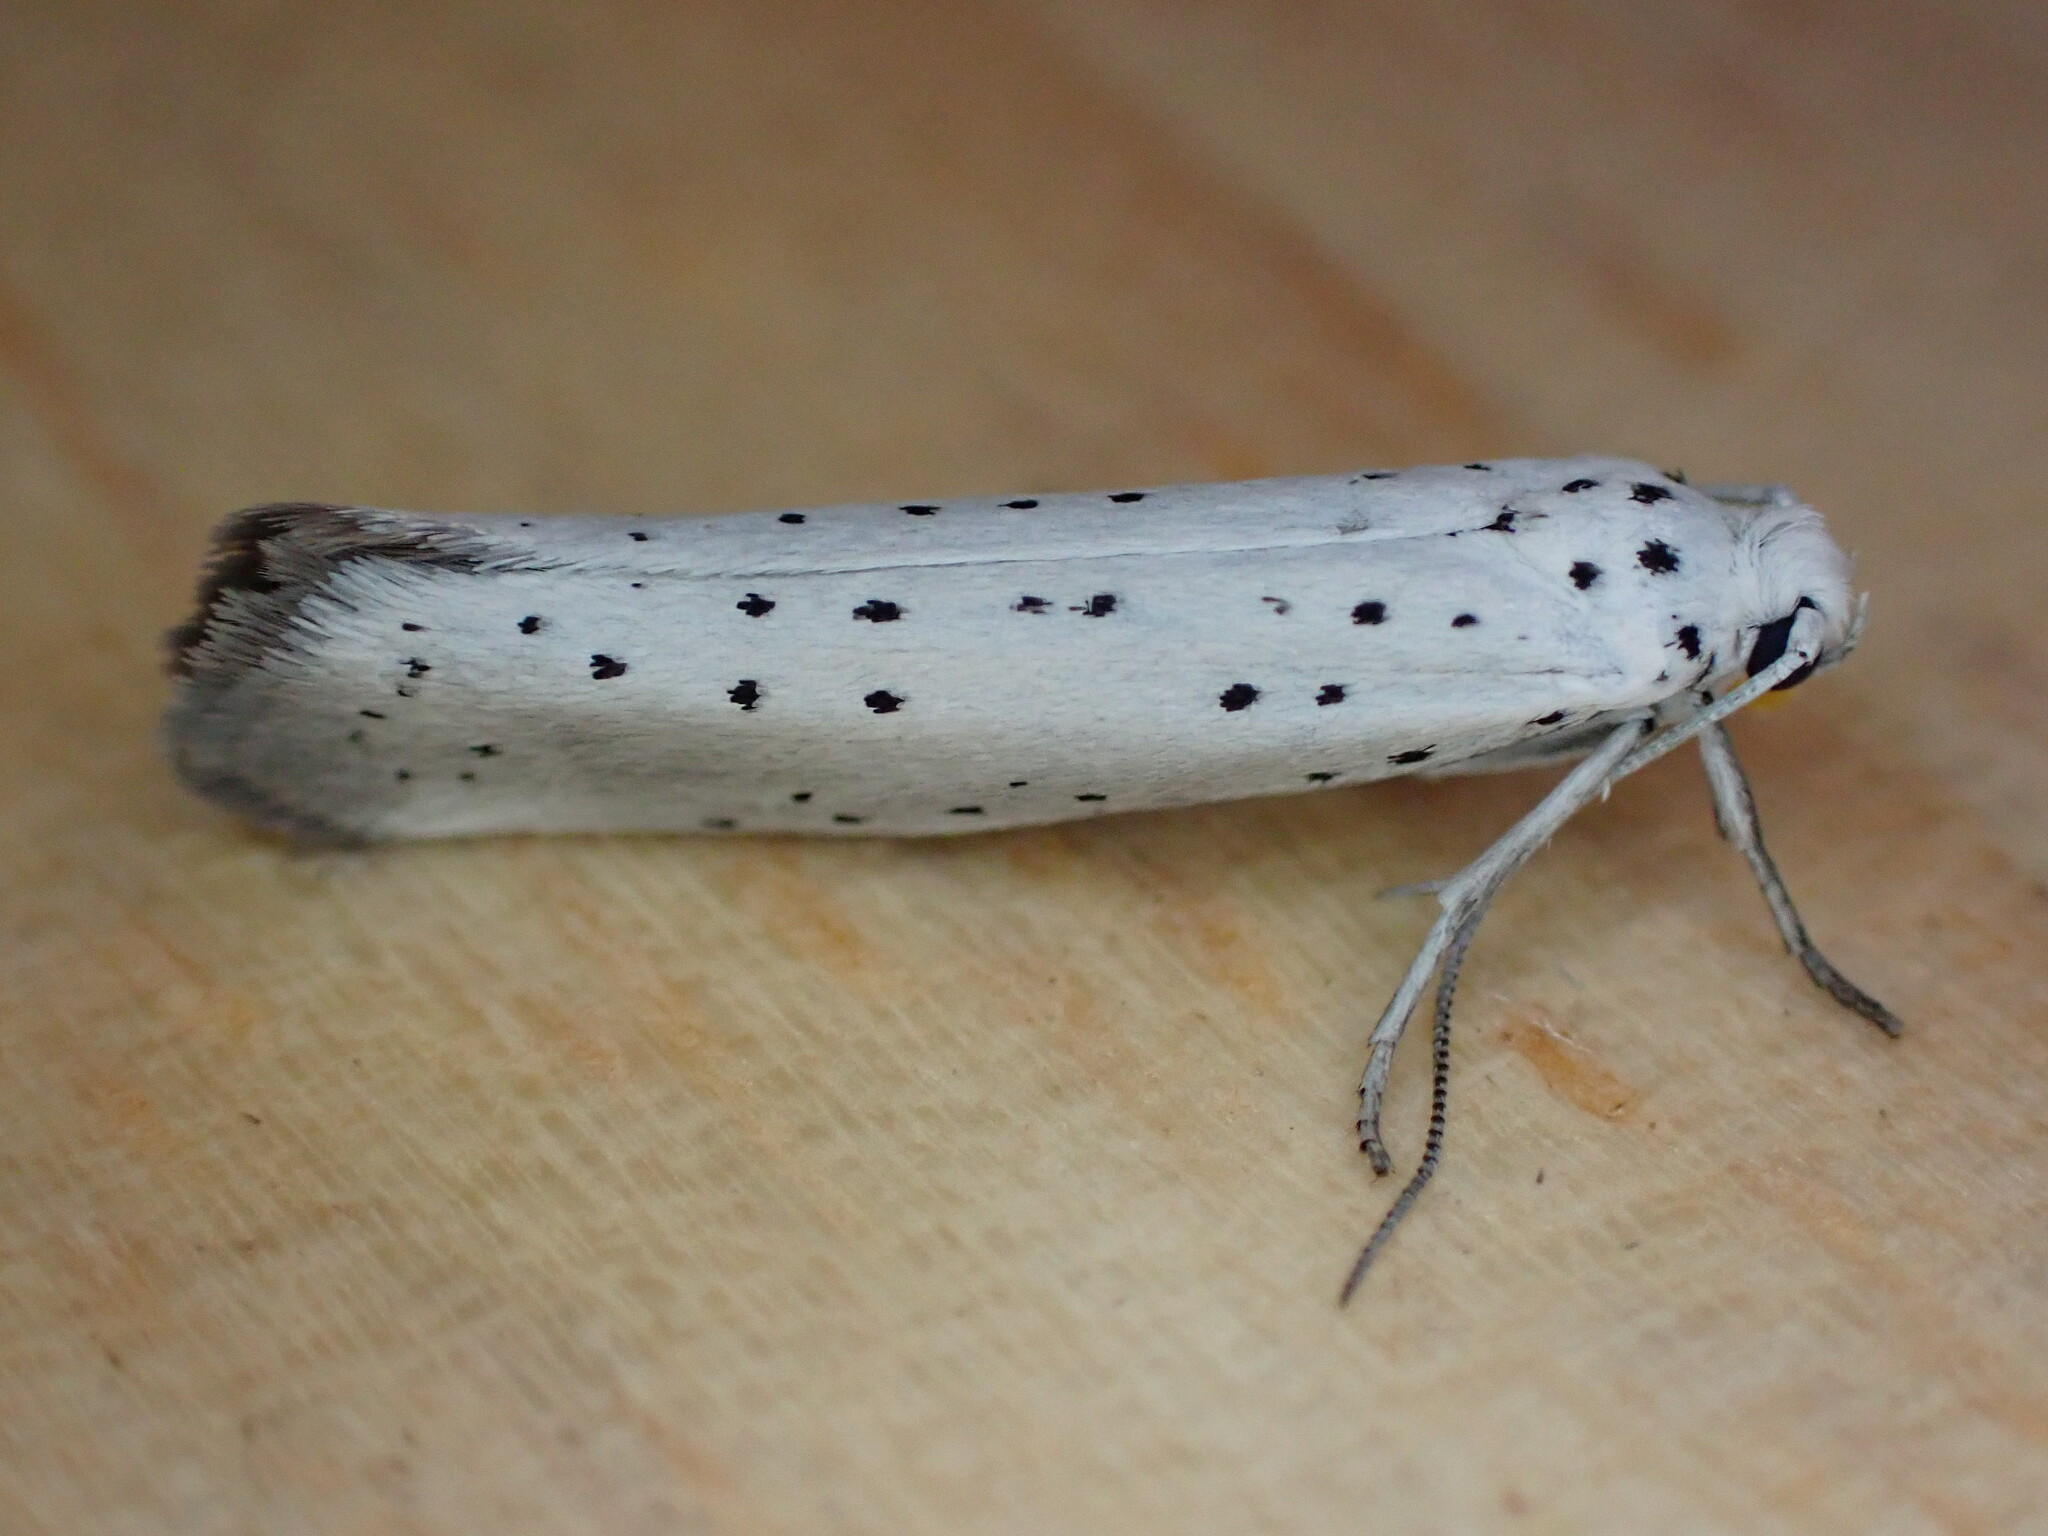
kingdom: Animalia
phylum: Arthropoda
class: Insecta
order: Lepidoptera
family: Yponomeutidae
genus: Yponomeuta
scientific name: Yponomeuta
